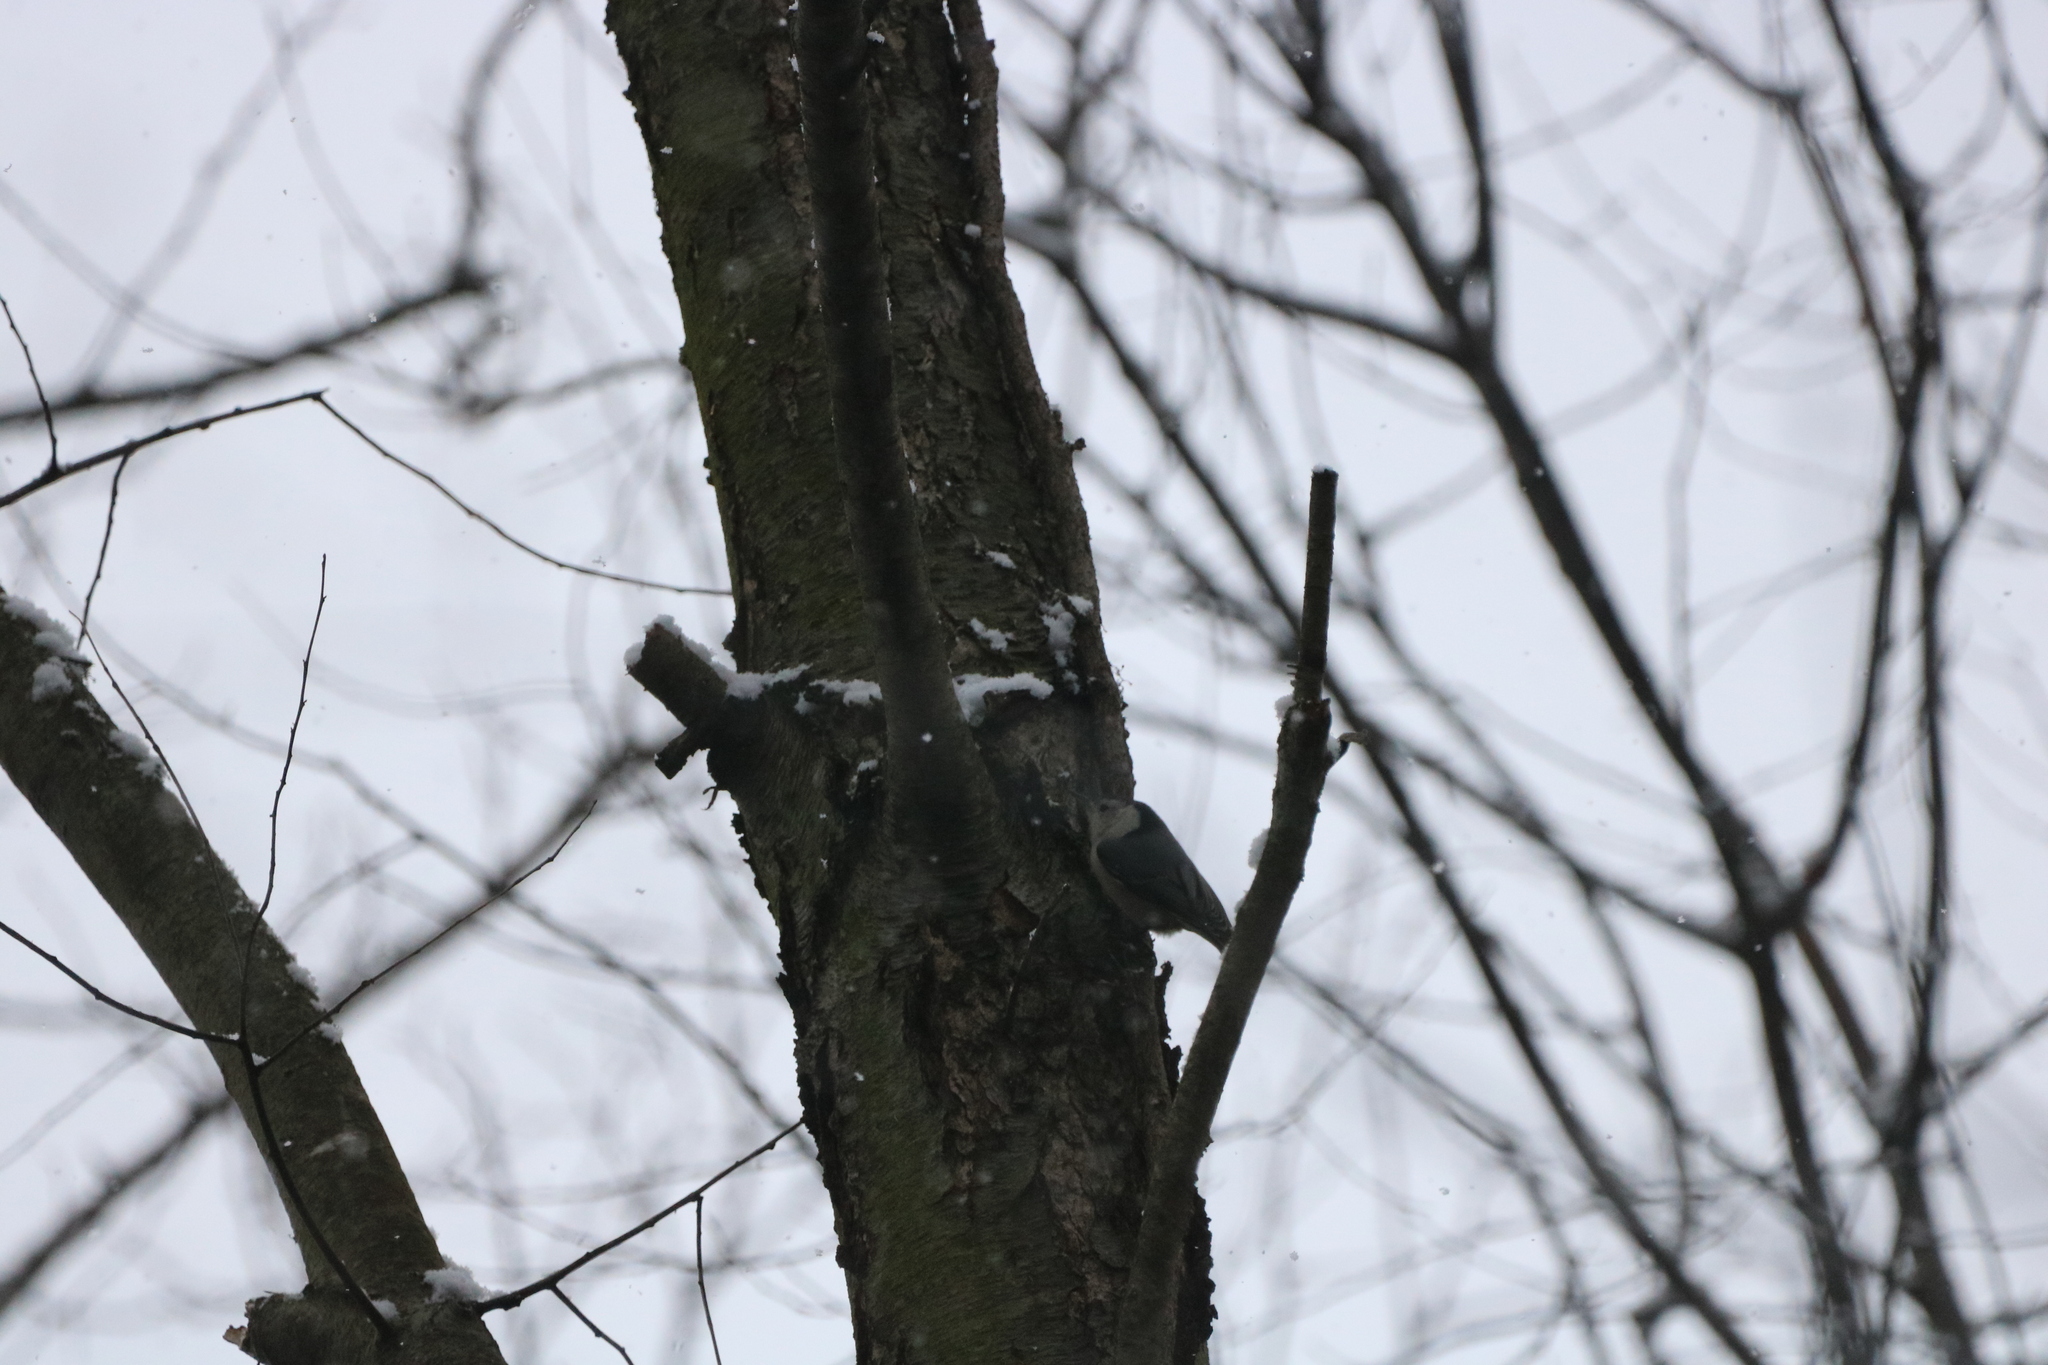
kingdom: Animalia
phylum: Chordata
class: Aves
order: Passeriformes
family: Sittidae
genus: Sitta
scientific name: Sitta carolinensis
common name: White-breasted nuthatch
